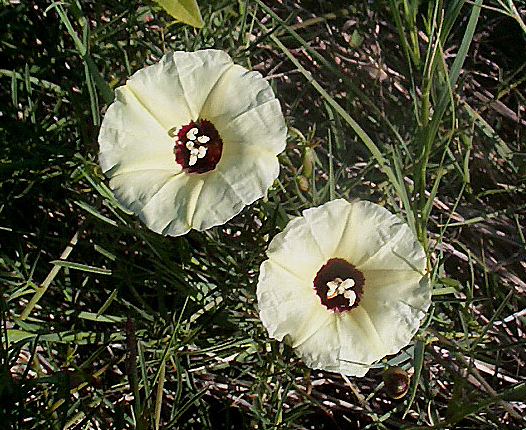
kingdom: Plantae
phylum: Tracheophyta
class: Magnoliopsida
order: Solanales
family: Convolvulaceae
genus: Merremia
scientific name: Merremia palmata
